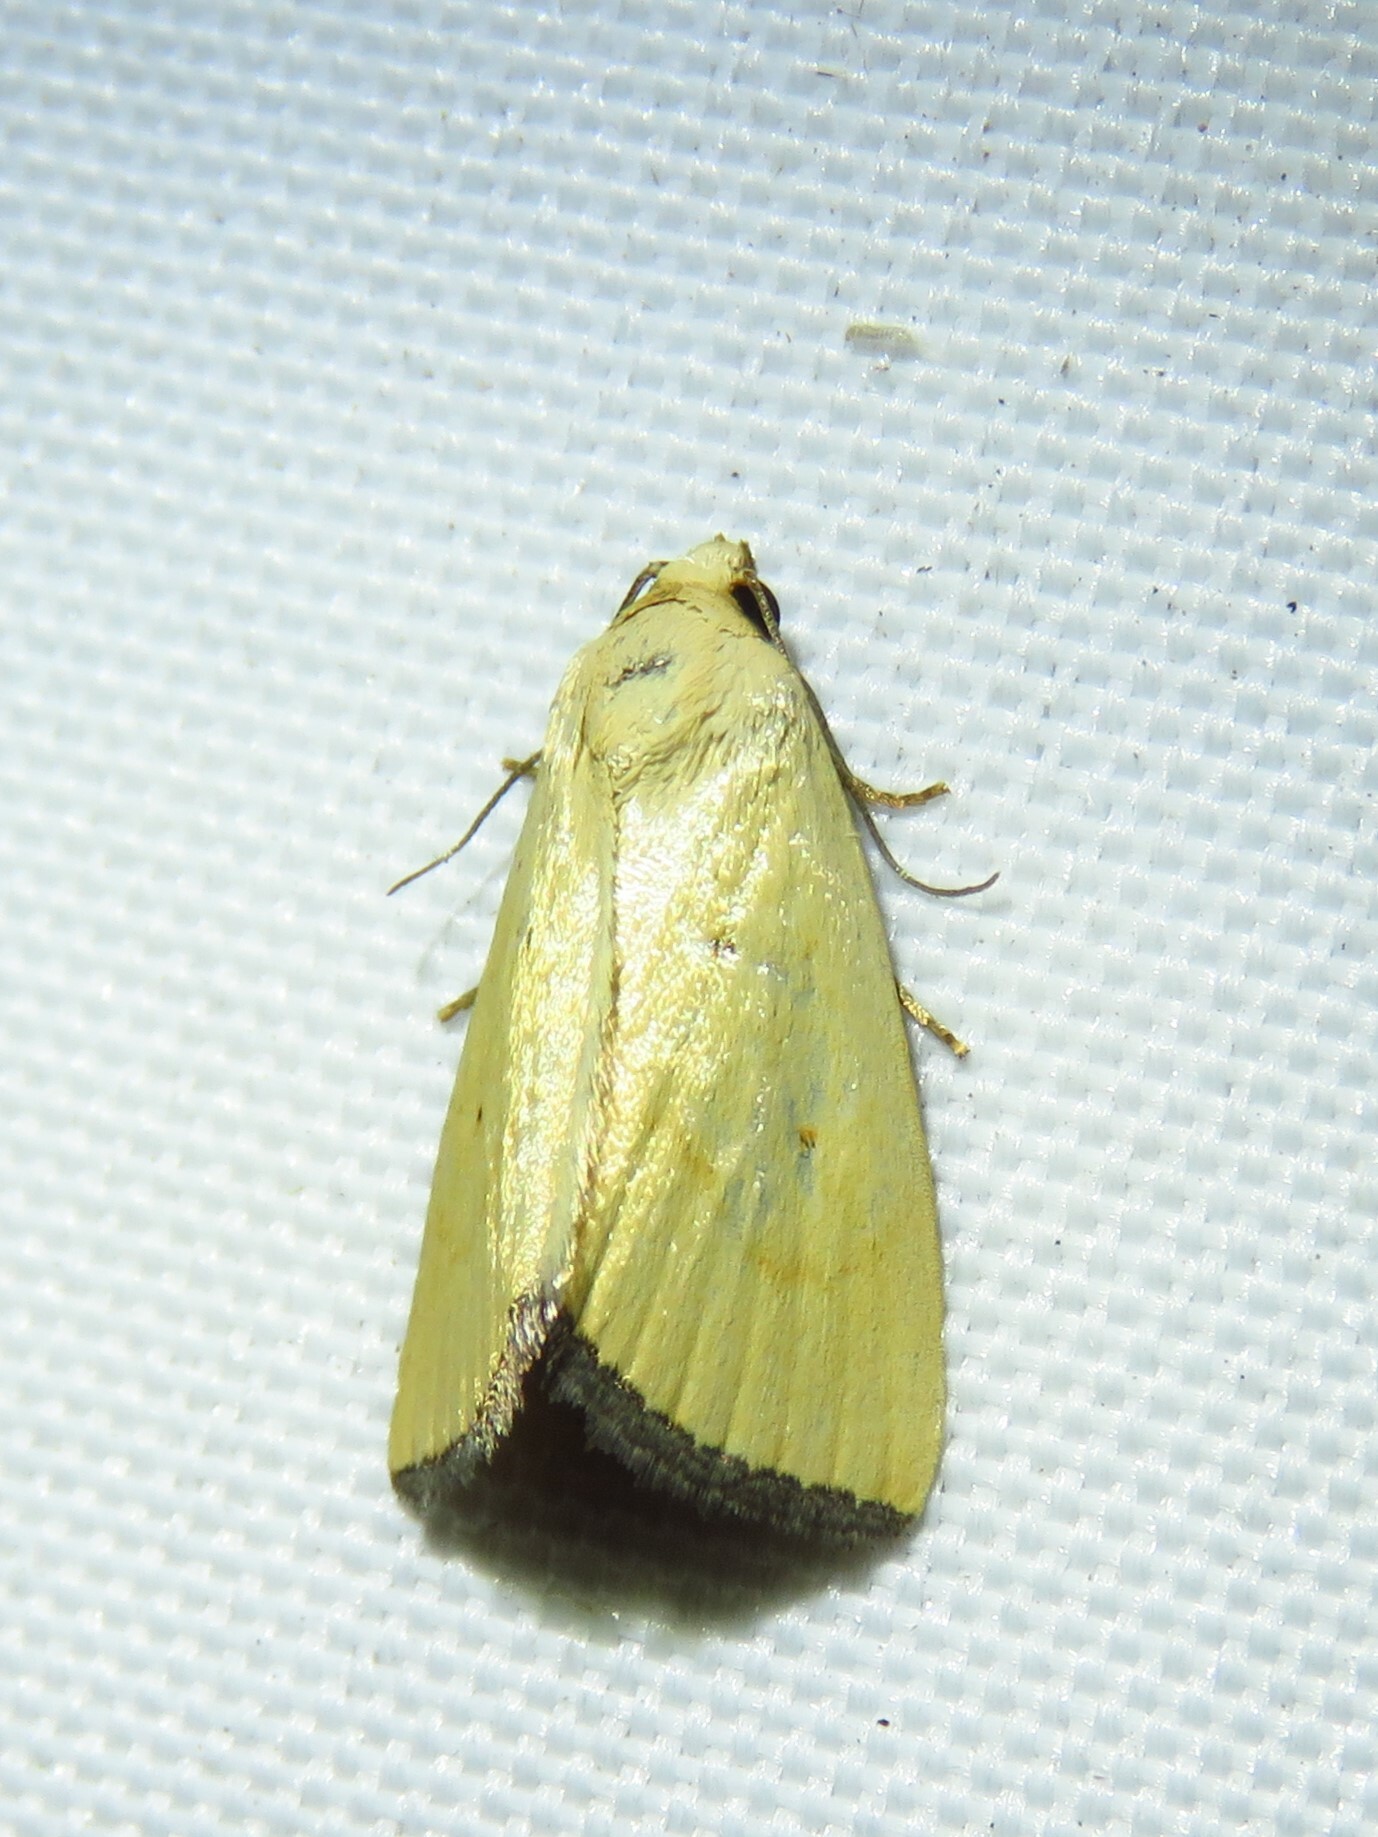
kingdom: Animalia
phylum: Arthropoda
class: Insecta
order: Lepidoptera
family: Noctuidae
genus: Marimatha
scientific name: Marimatha nigrofimbria
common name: Black-bordered lemon moth
